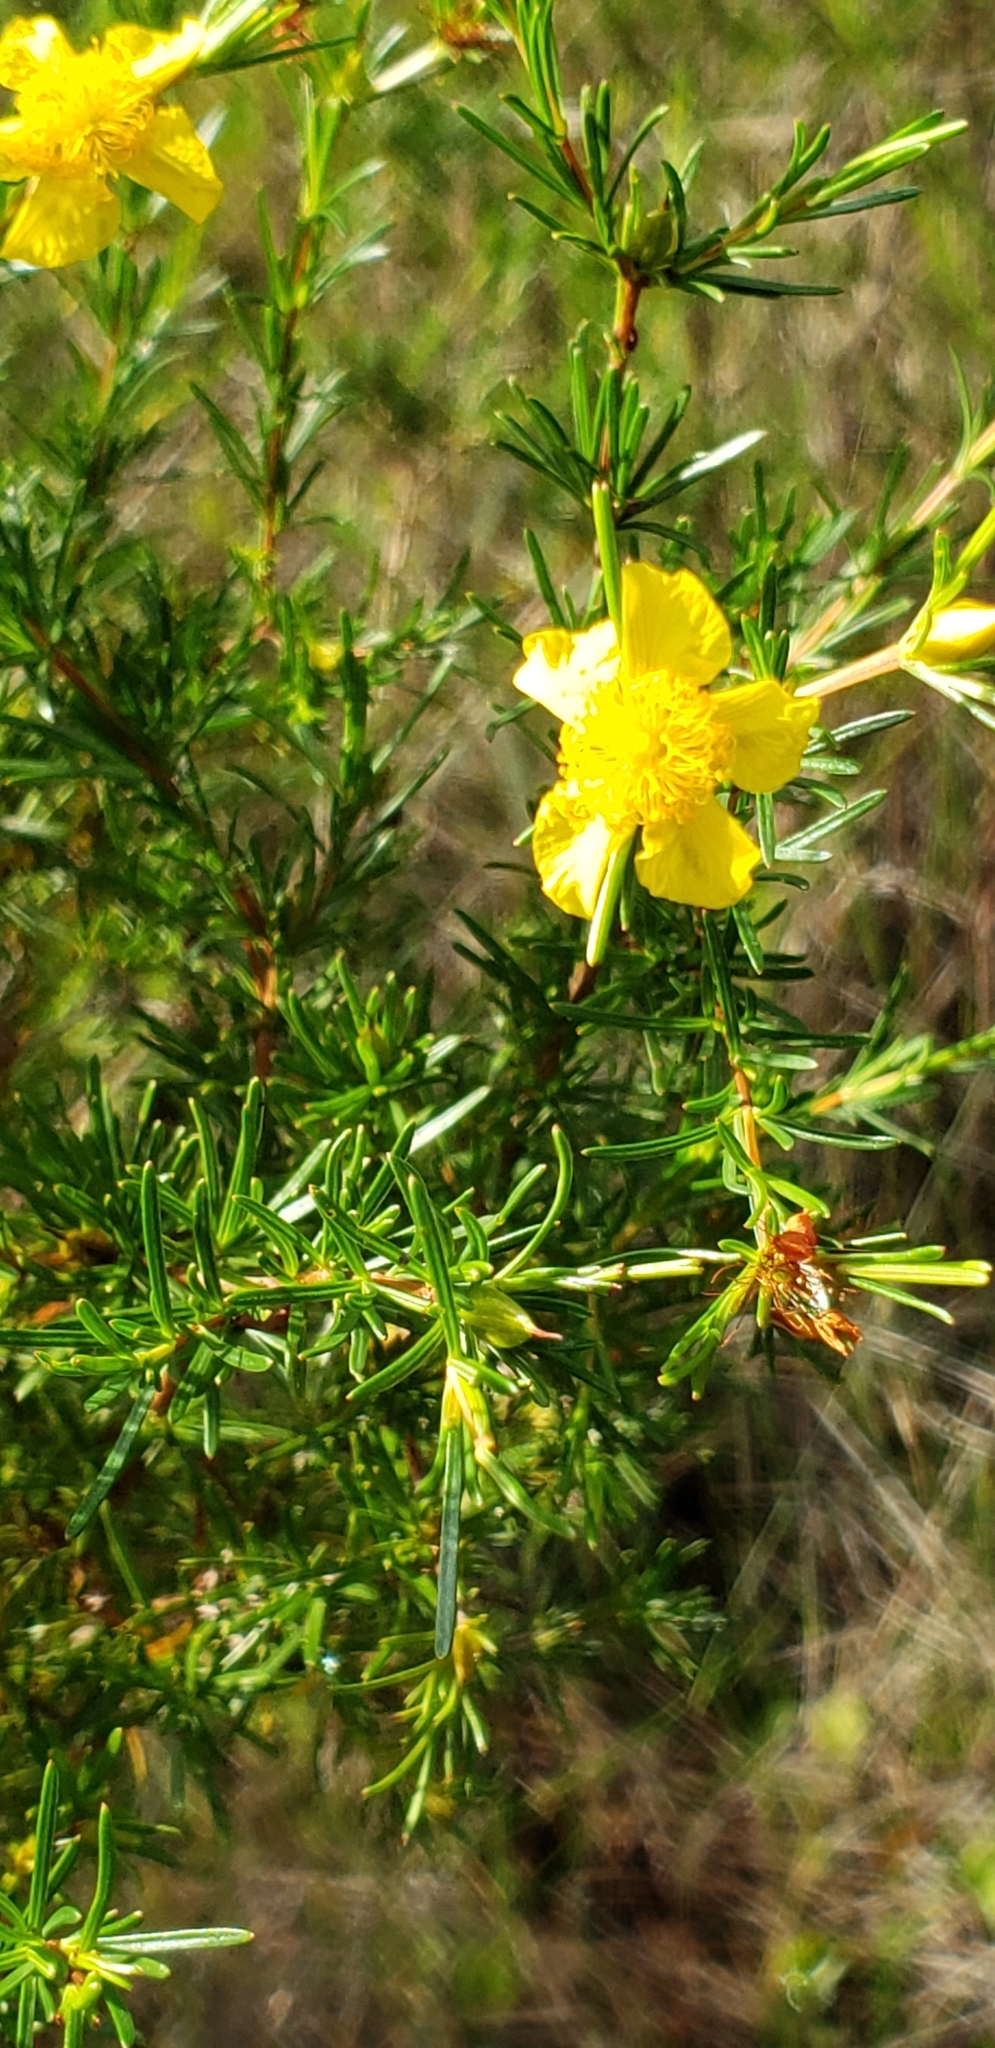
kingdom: Plantae
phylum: Tracheophyta
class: Magnoliopsida
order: Malpighiales
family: Hypericaceae
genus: Hypericum
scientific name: Hypericum fasciculatum
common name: Peelbark st. john's wort
